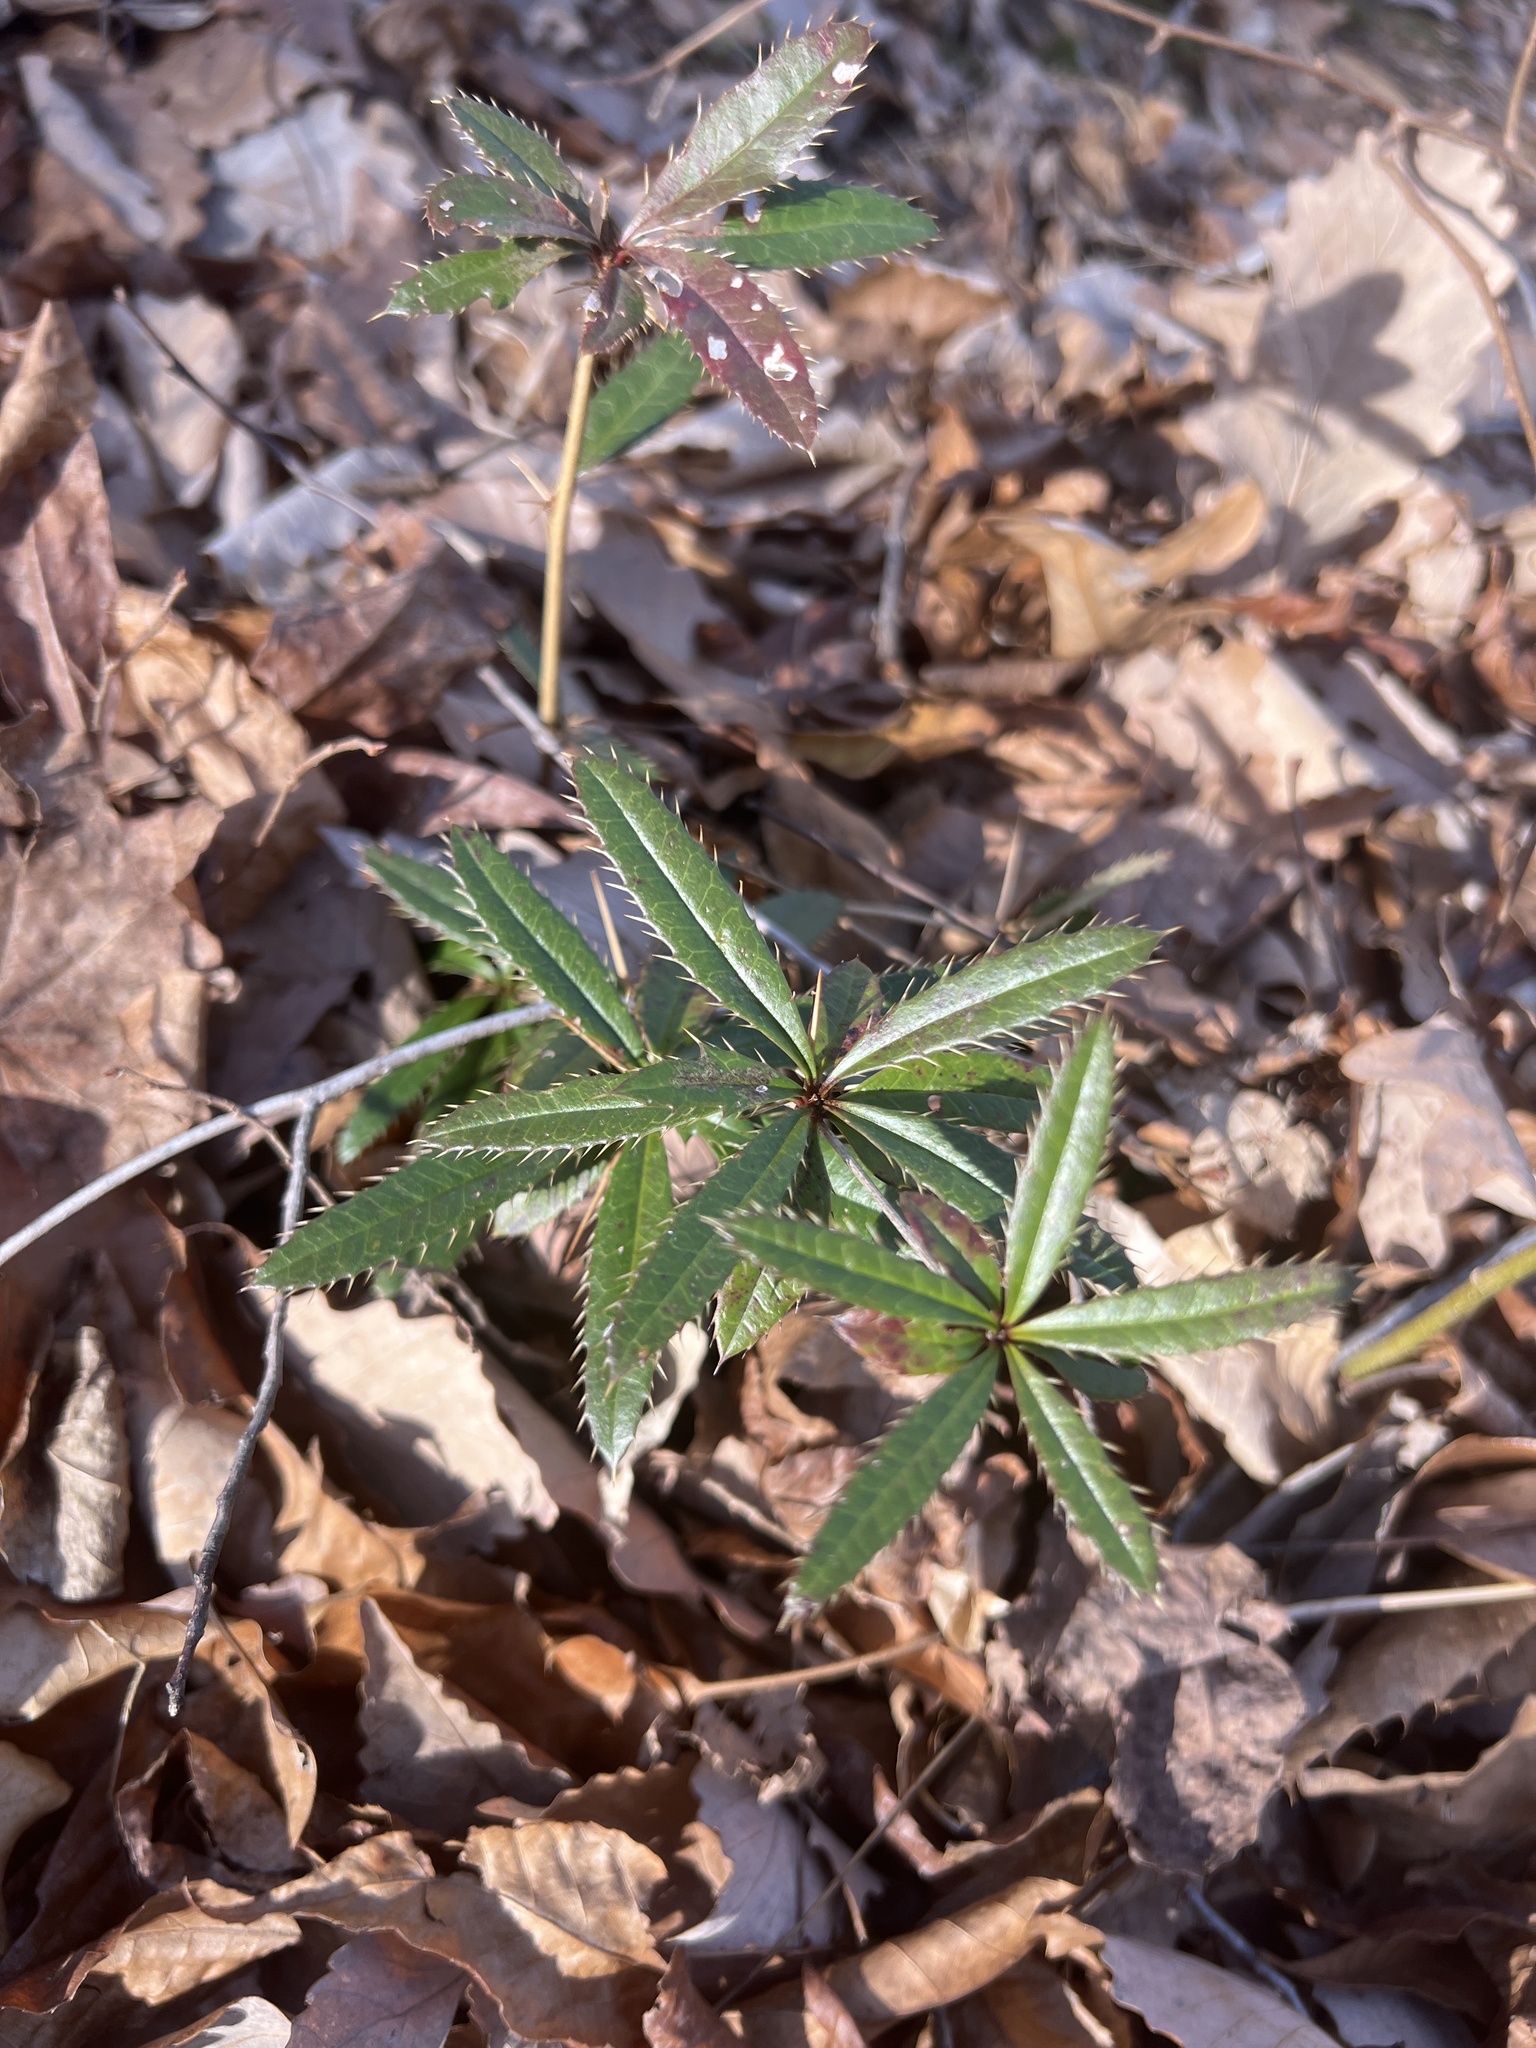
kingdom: Plantae
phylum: Tracheophyta
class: Magnoliopsida
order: Ranunculales
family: Berberidaceae
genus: Berberis
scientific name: Berberis julianae
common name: Wintergreen barberry
